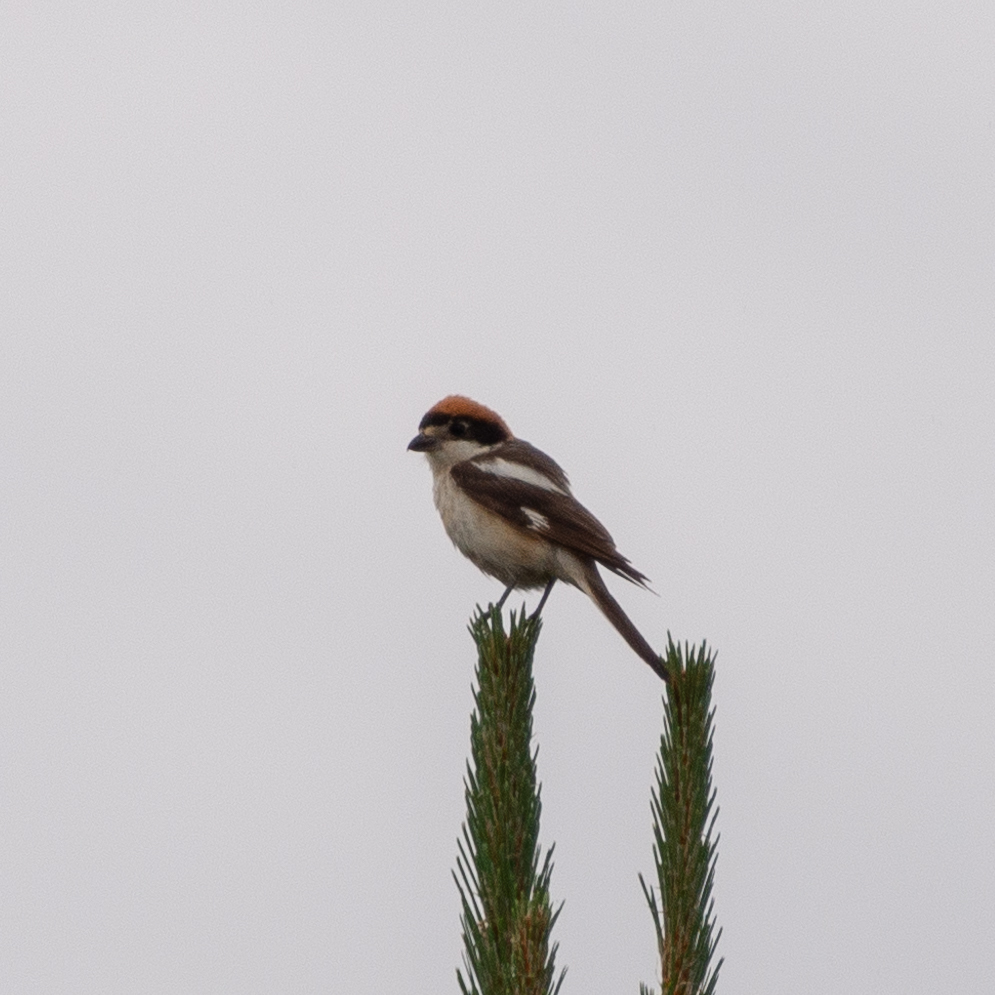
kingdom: Animalia
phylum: Chordata
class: Aves
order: Passeriformes
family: Laniidae
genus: Lanius
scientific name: Lanius senator
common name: Woodchat shrike
